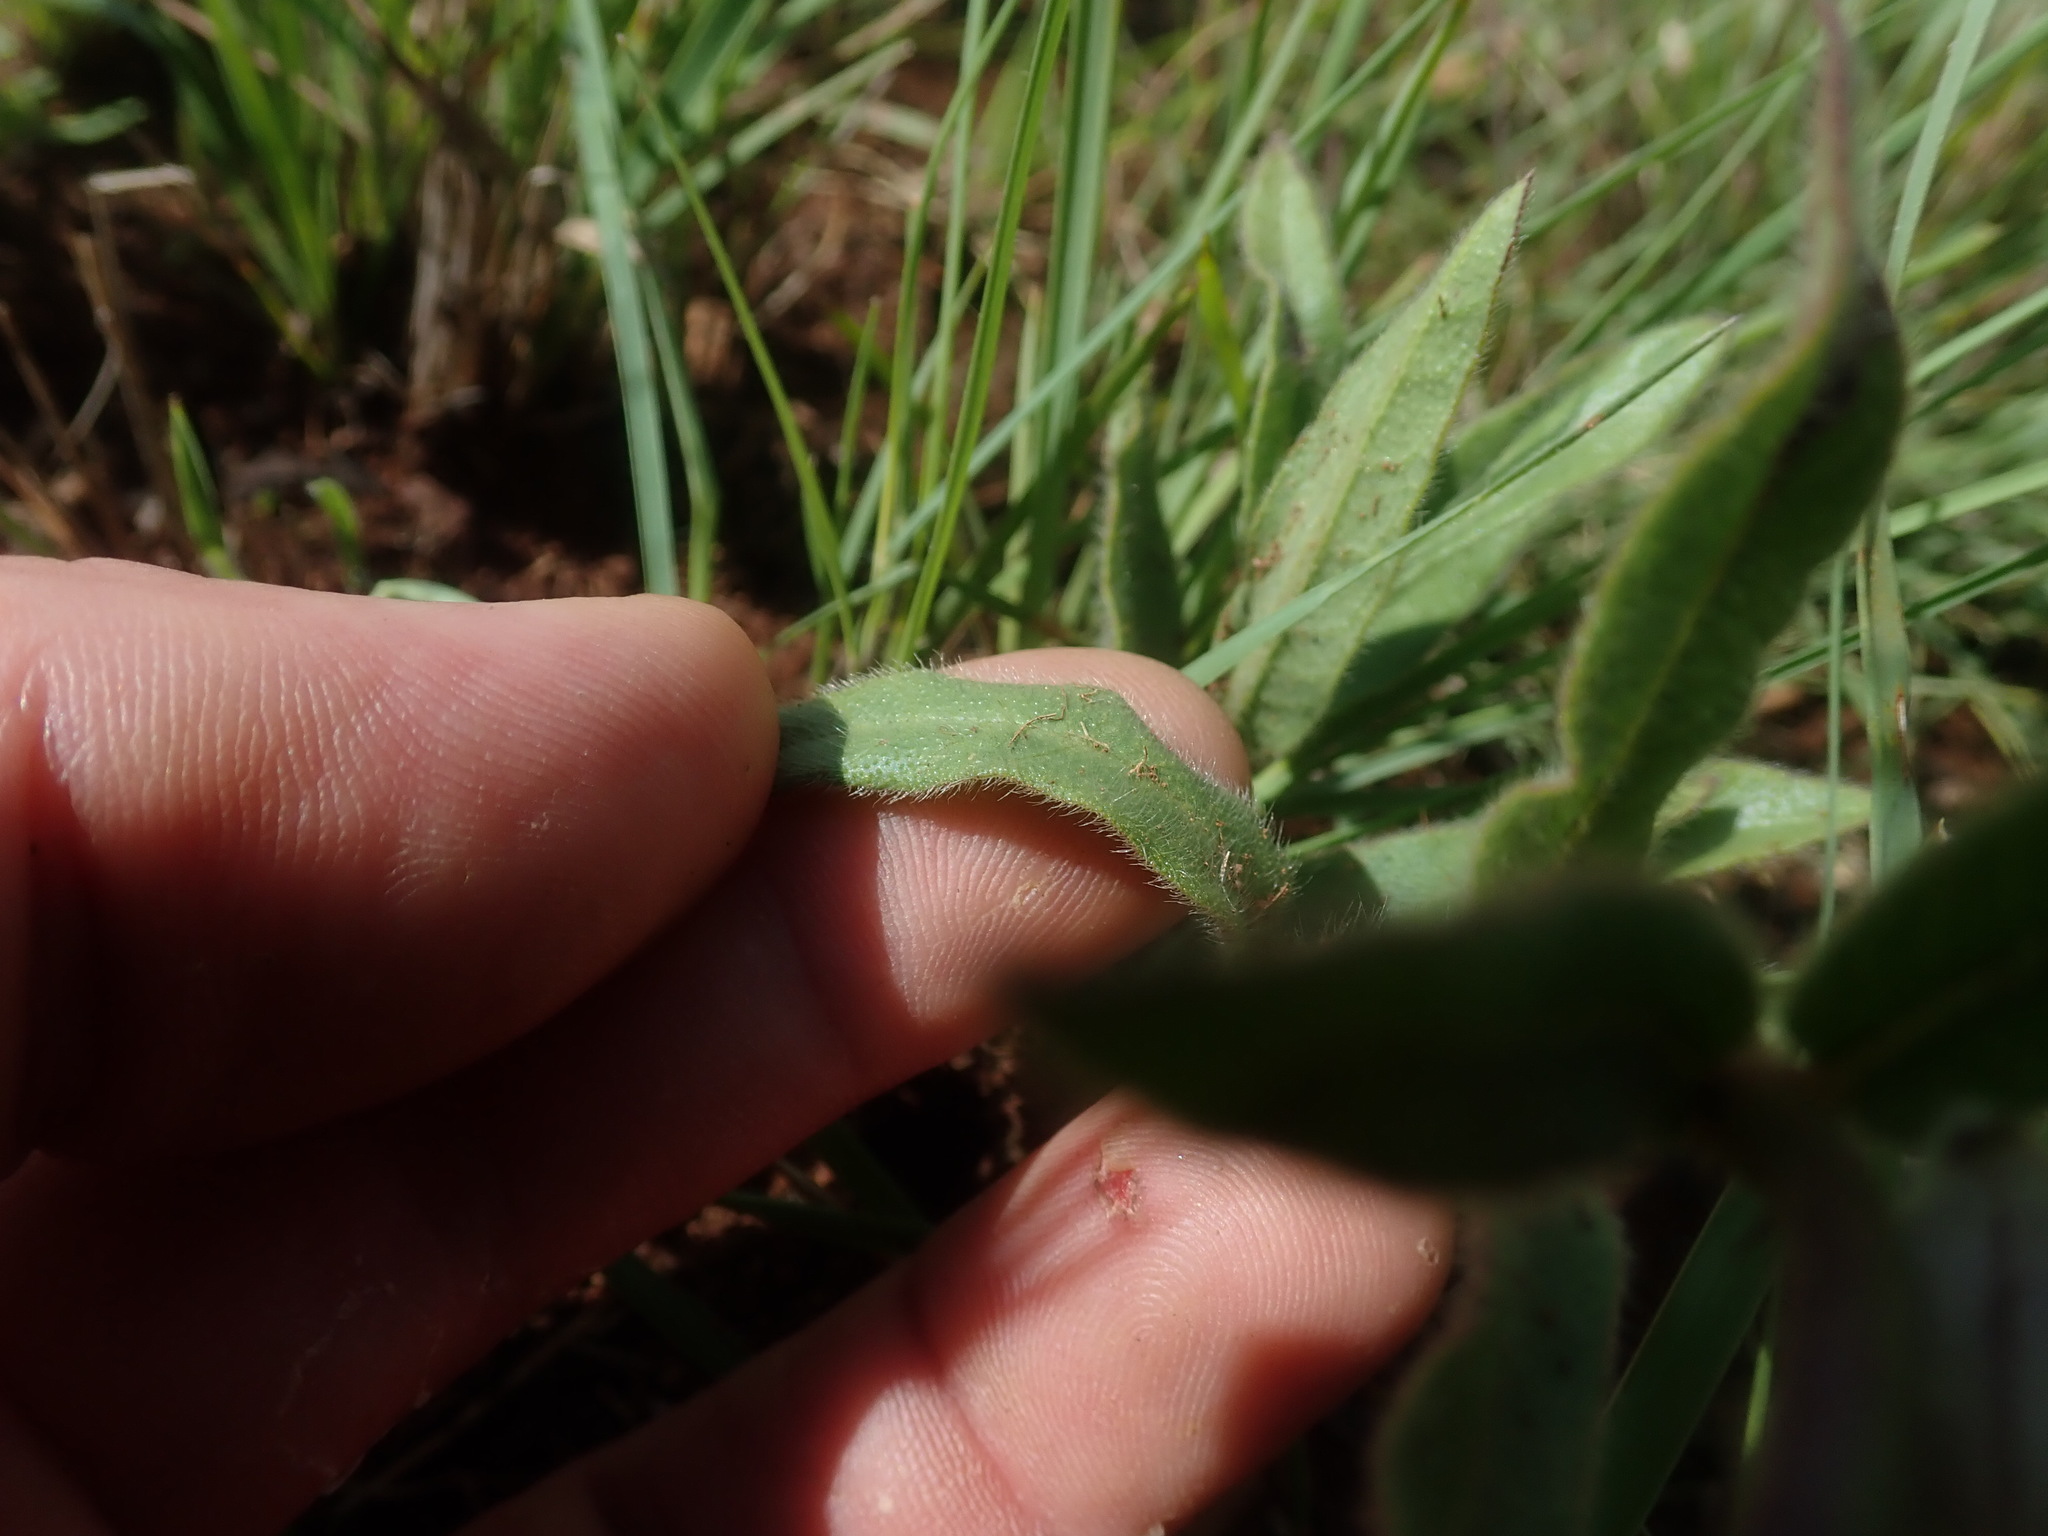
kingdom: Plantae
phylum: Tracheophyta
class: Magnoliopsida
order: Gentianales
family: Apocynaceae
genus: Asclepias
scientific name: Asclepias cultriformis
